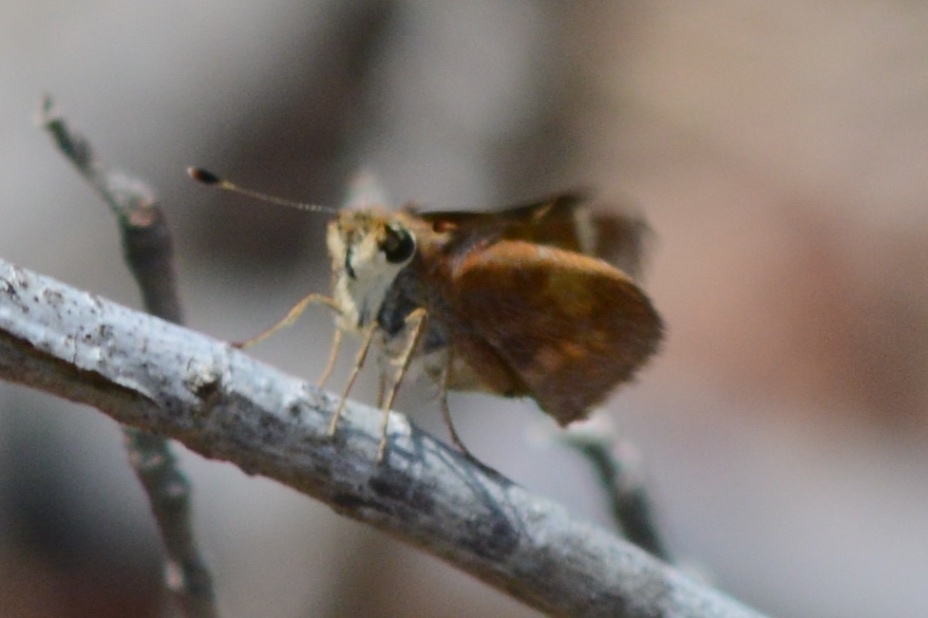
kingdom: Animalia
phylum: Arthropoda
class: Insecta
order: Lepidoptera
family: Hesperiidae
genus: Lon
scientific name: Lon melane
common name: Umber skipper
